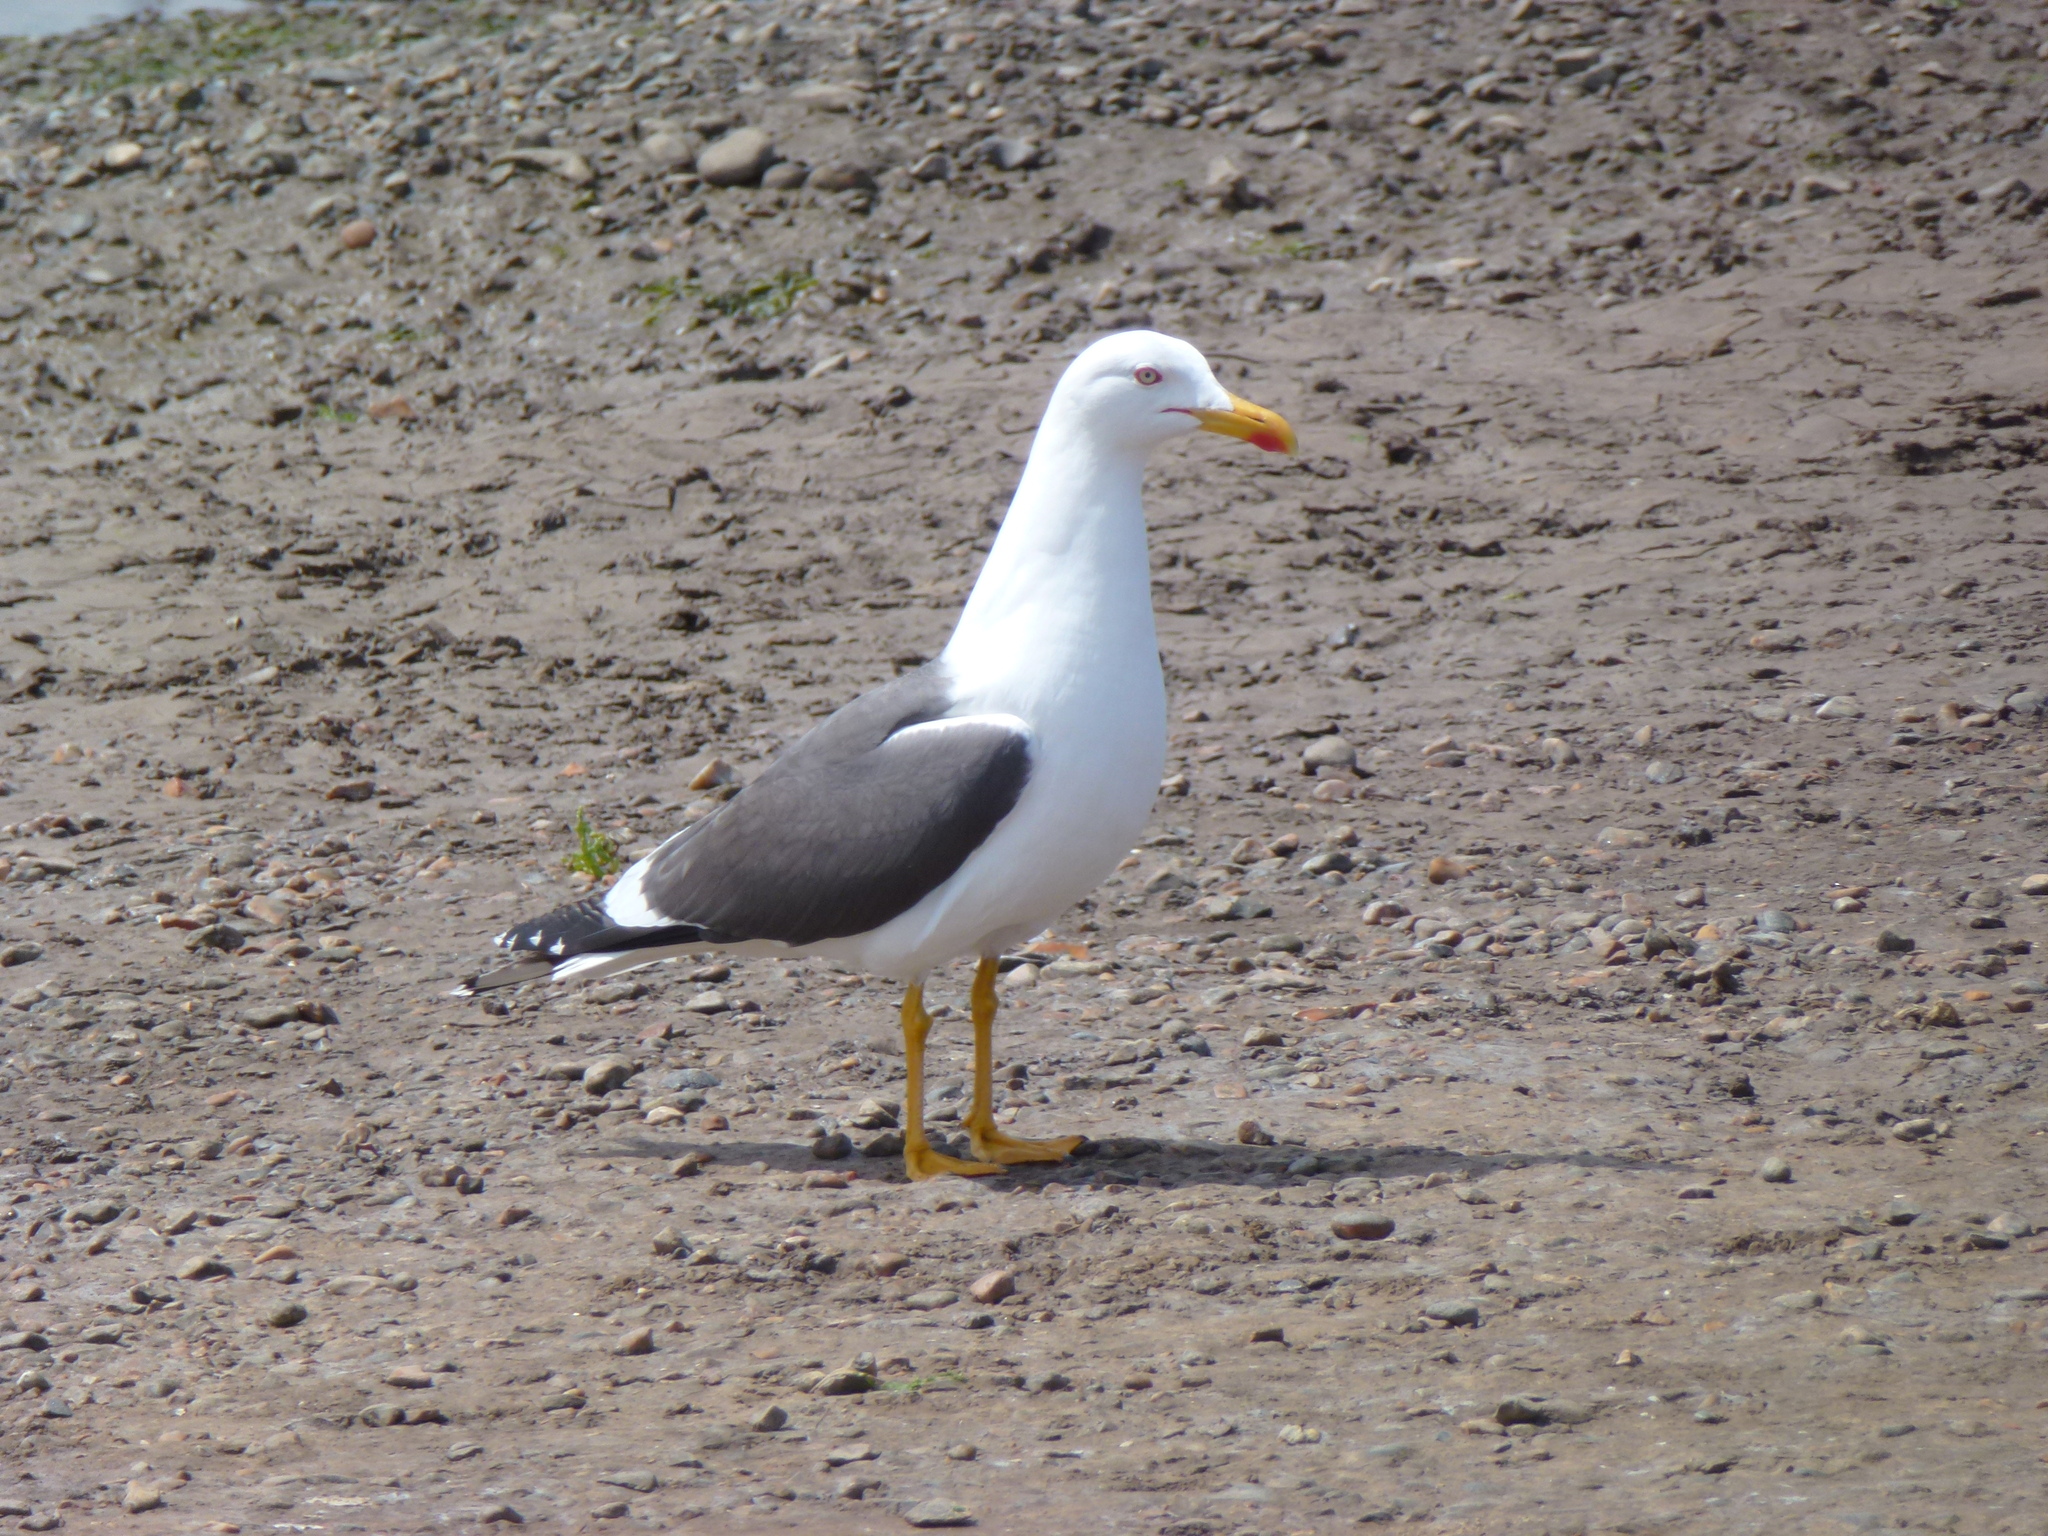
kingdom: Animalia
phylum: Chordata
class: Aves
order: Charadriiformes
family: Laridae
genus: Larus
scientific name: Larus fuscus
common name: Lesser black-backed gull
